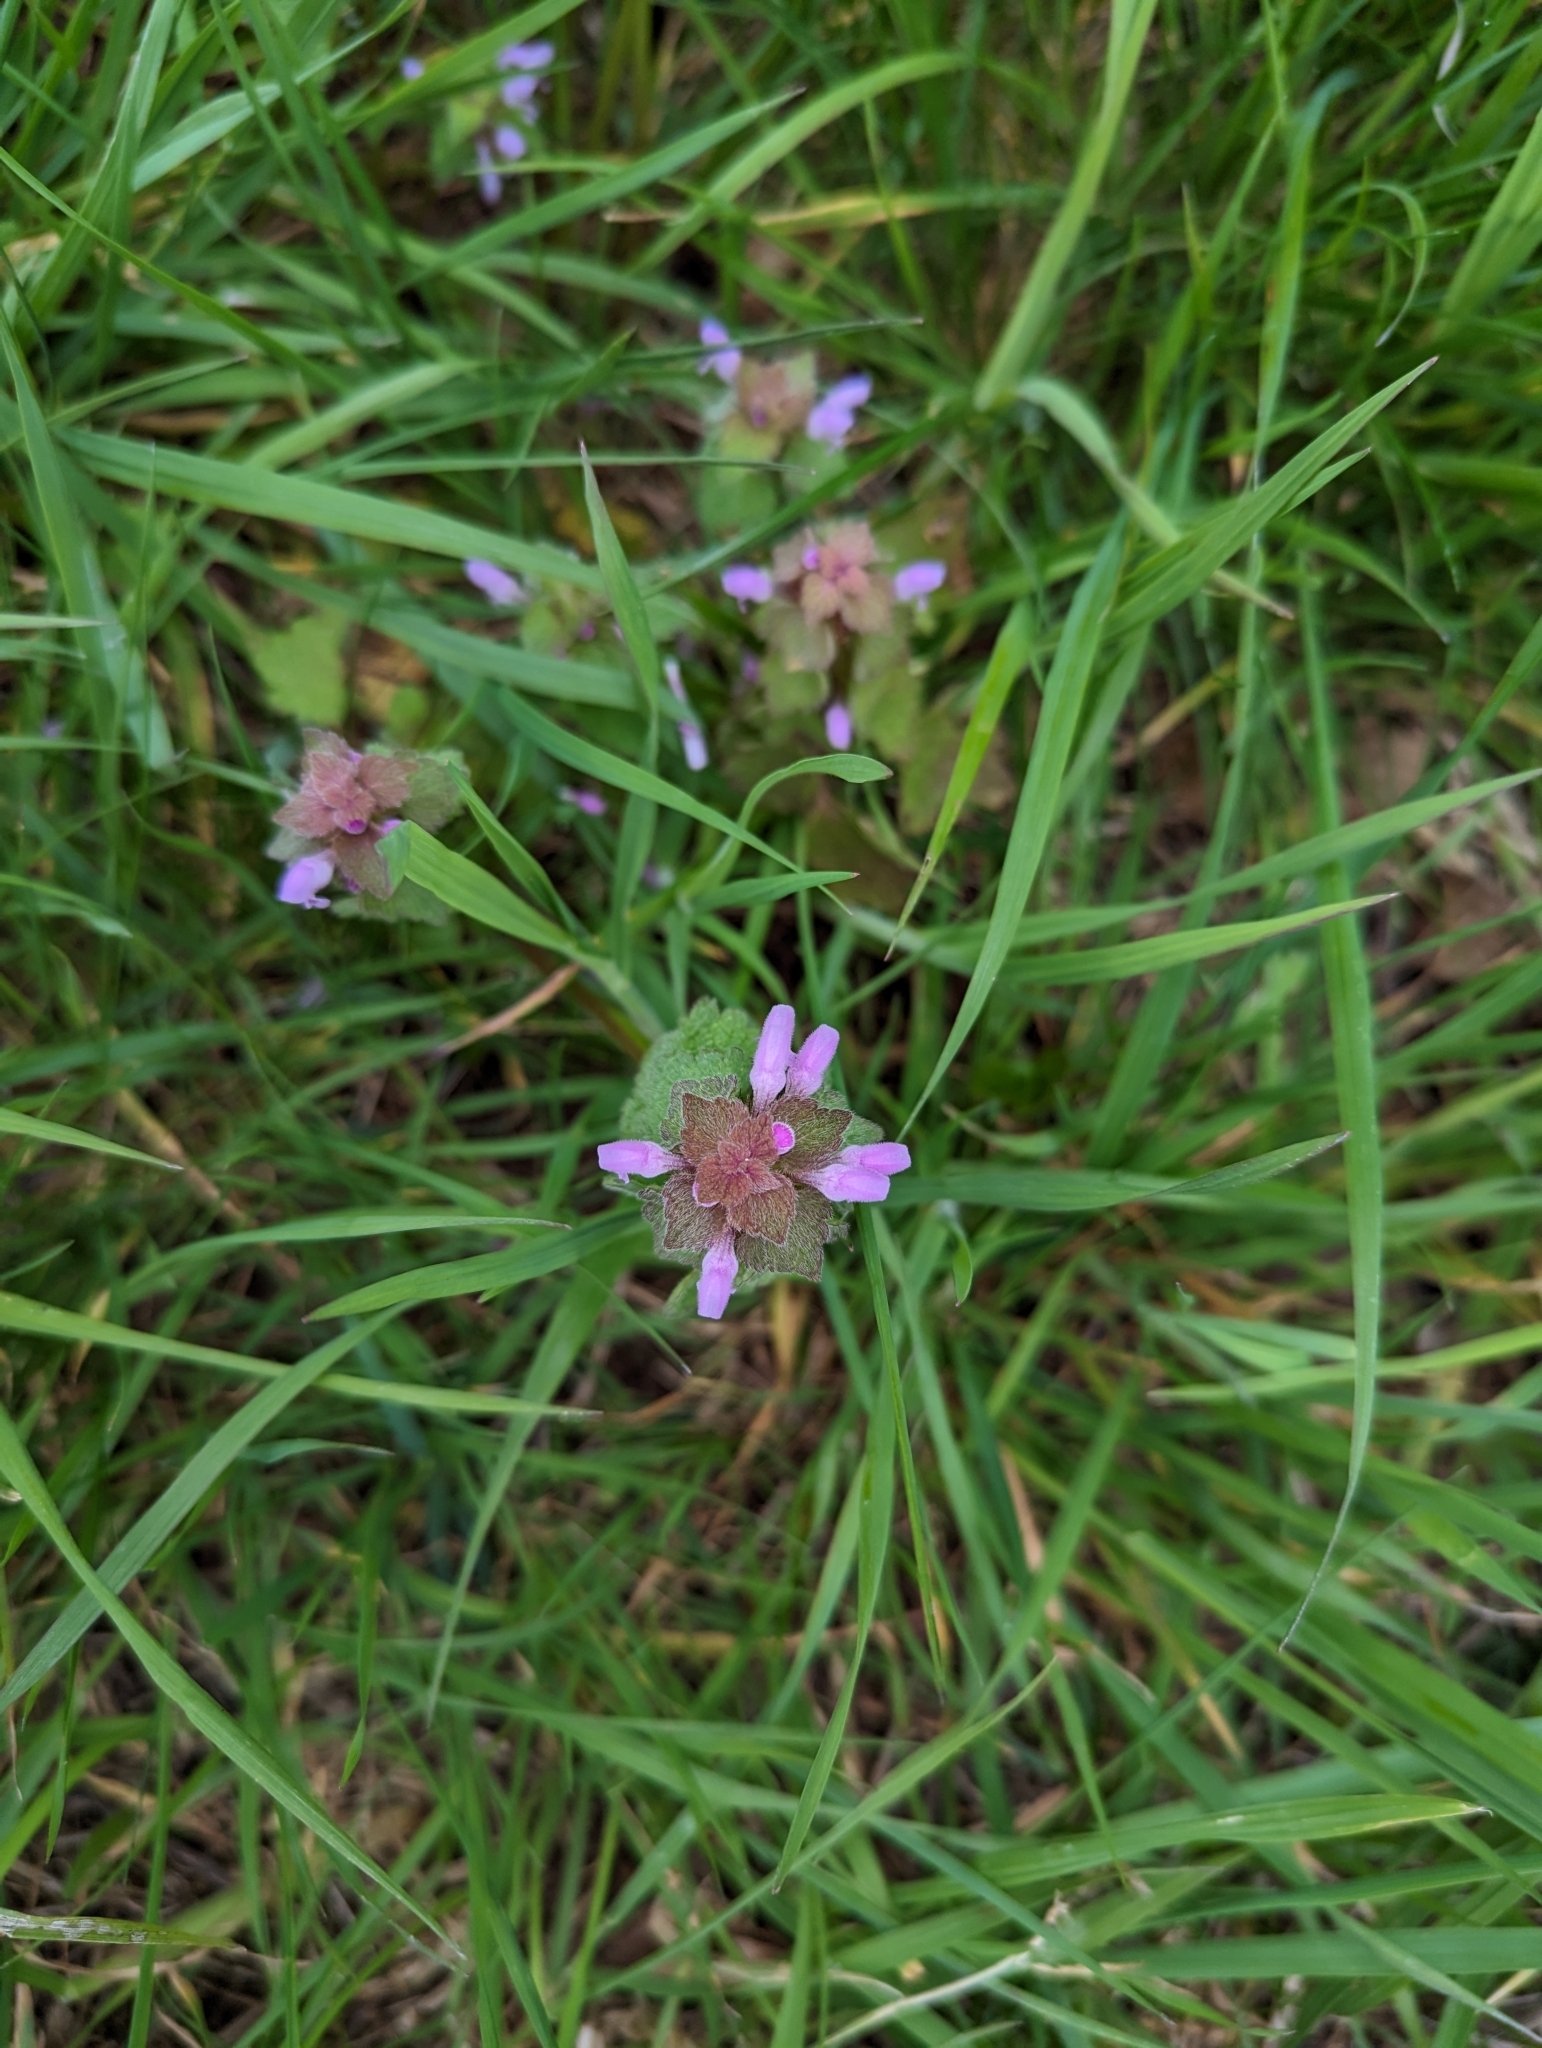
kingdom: Plantae
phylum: Tracheophyta
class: Magnoliopsida
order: Lamiales
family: Lamiaceae
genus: Lamium
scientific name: Lamium purpureum
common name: Red dead-nettle
